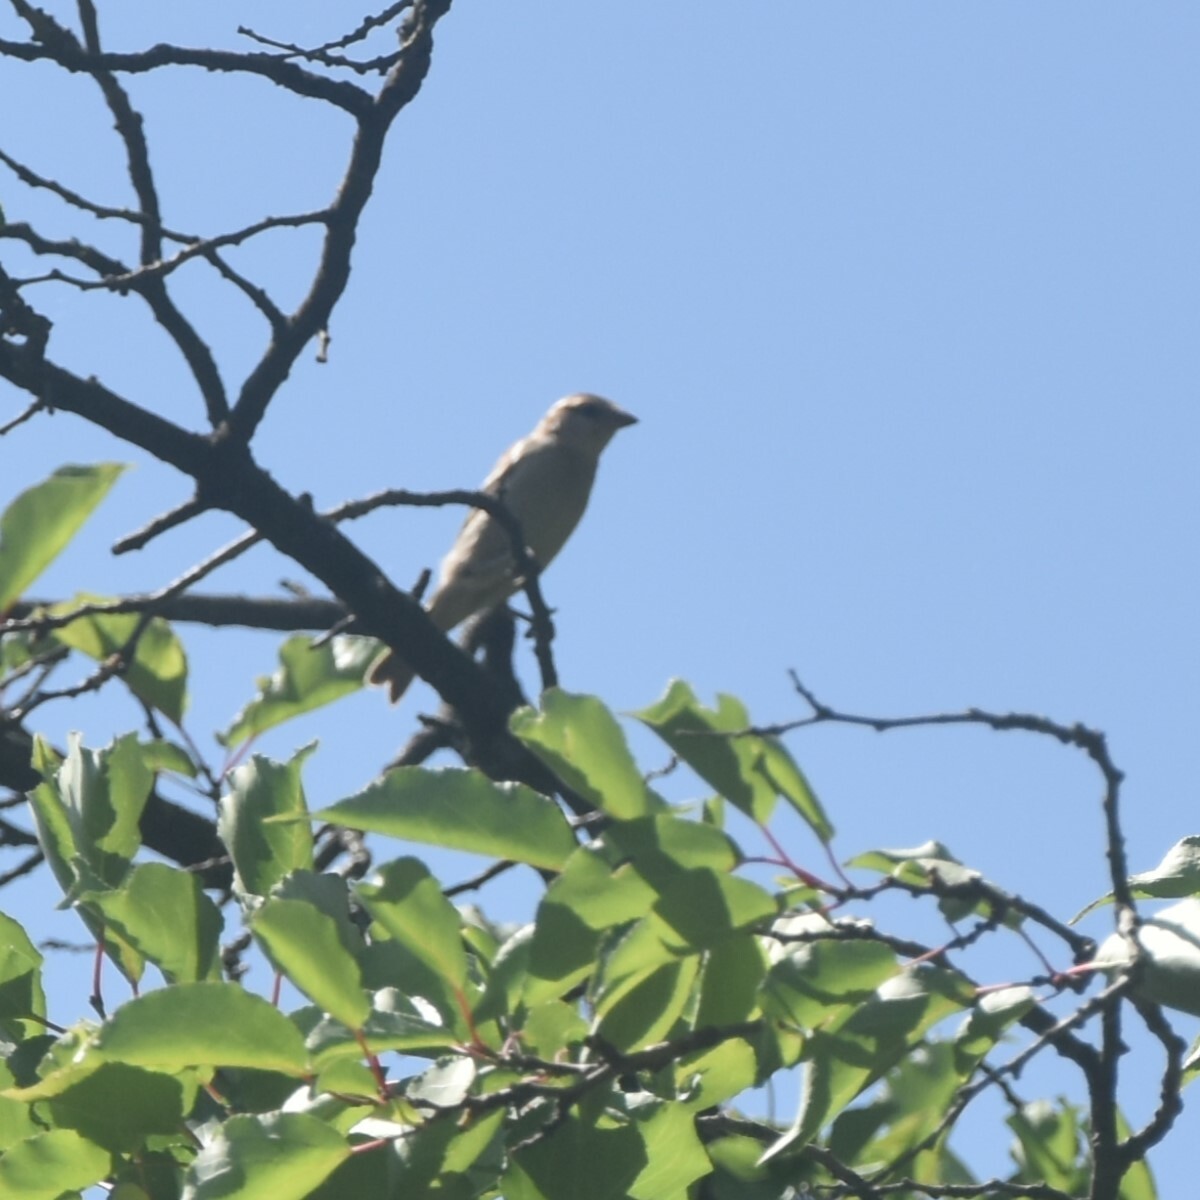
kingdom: Animalia
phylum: Chordata
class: Aves
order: Passeriformes
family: Passeridae
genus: Passer
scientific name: Passer domesticus
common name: House sparrow
